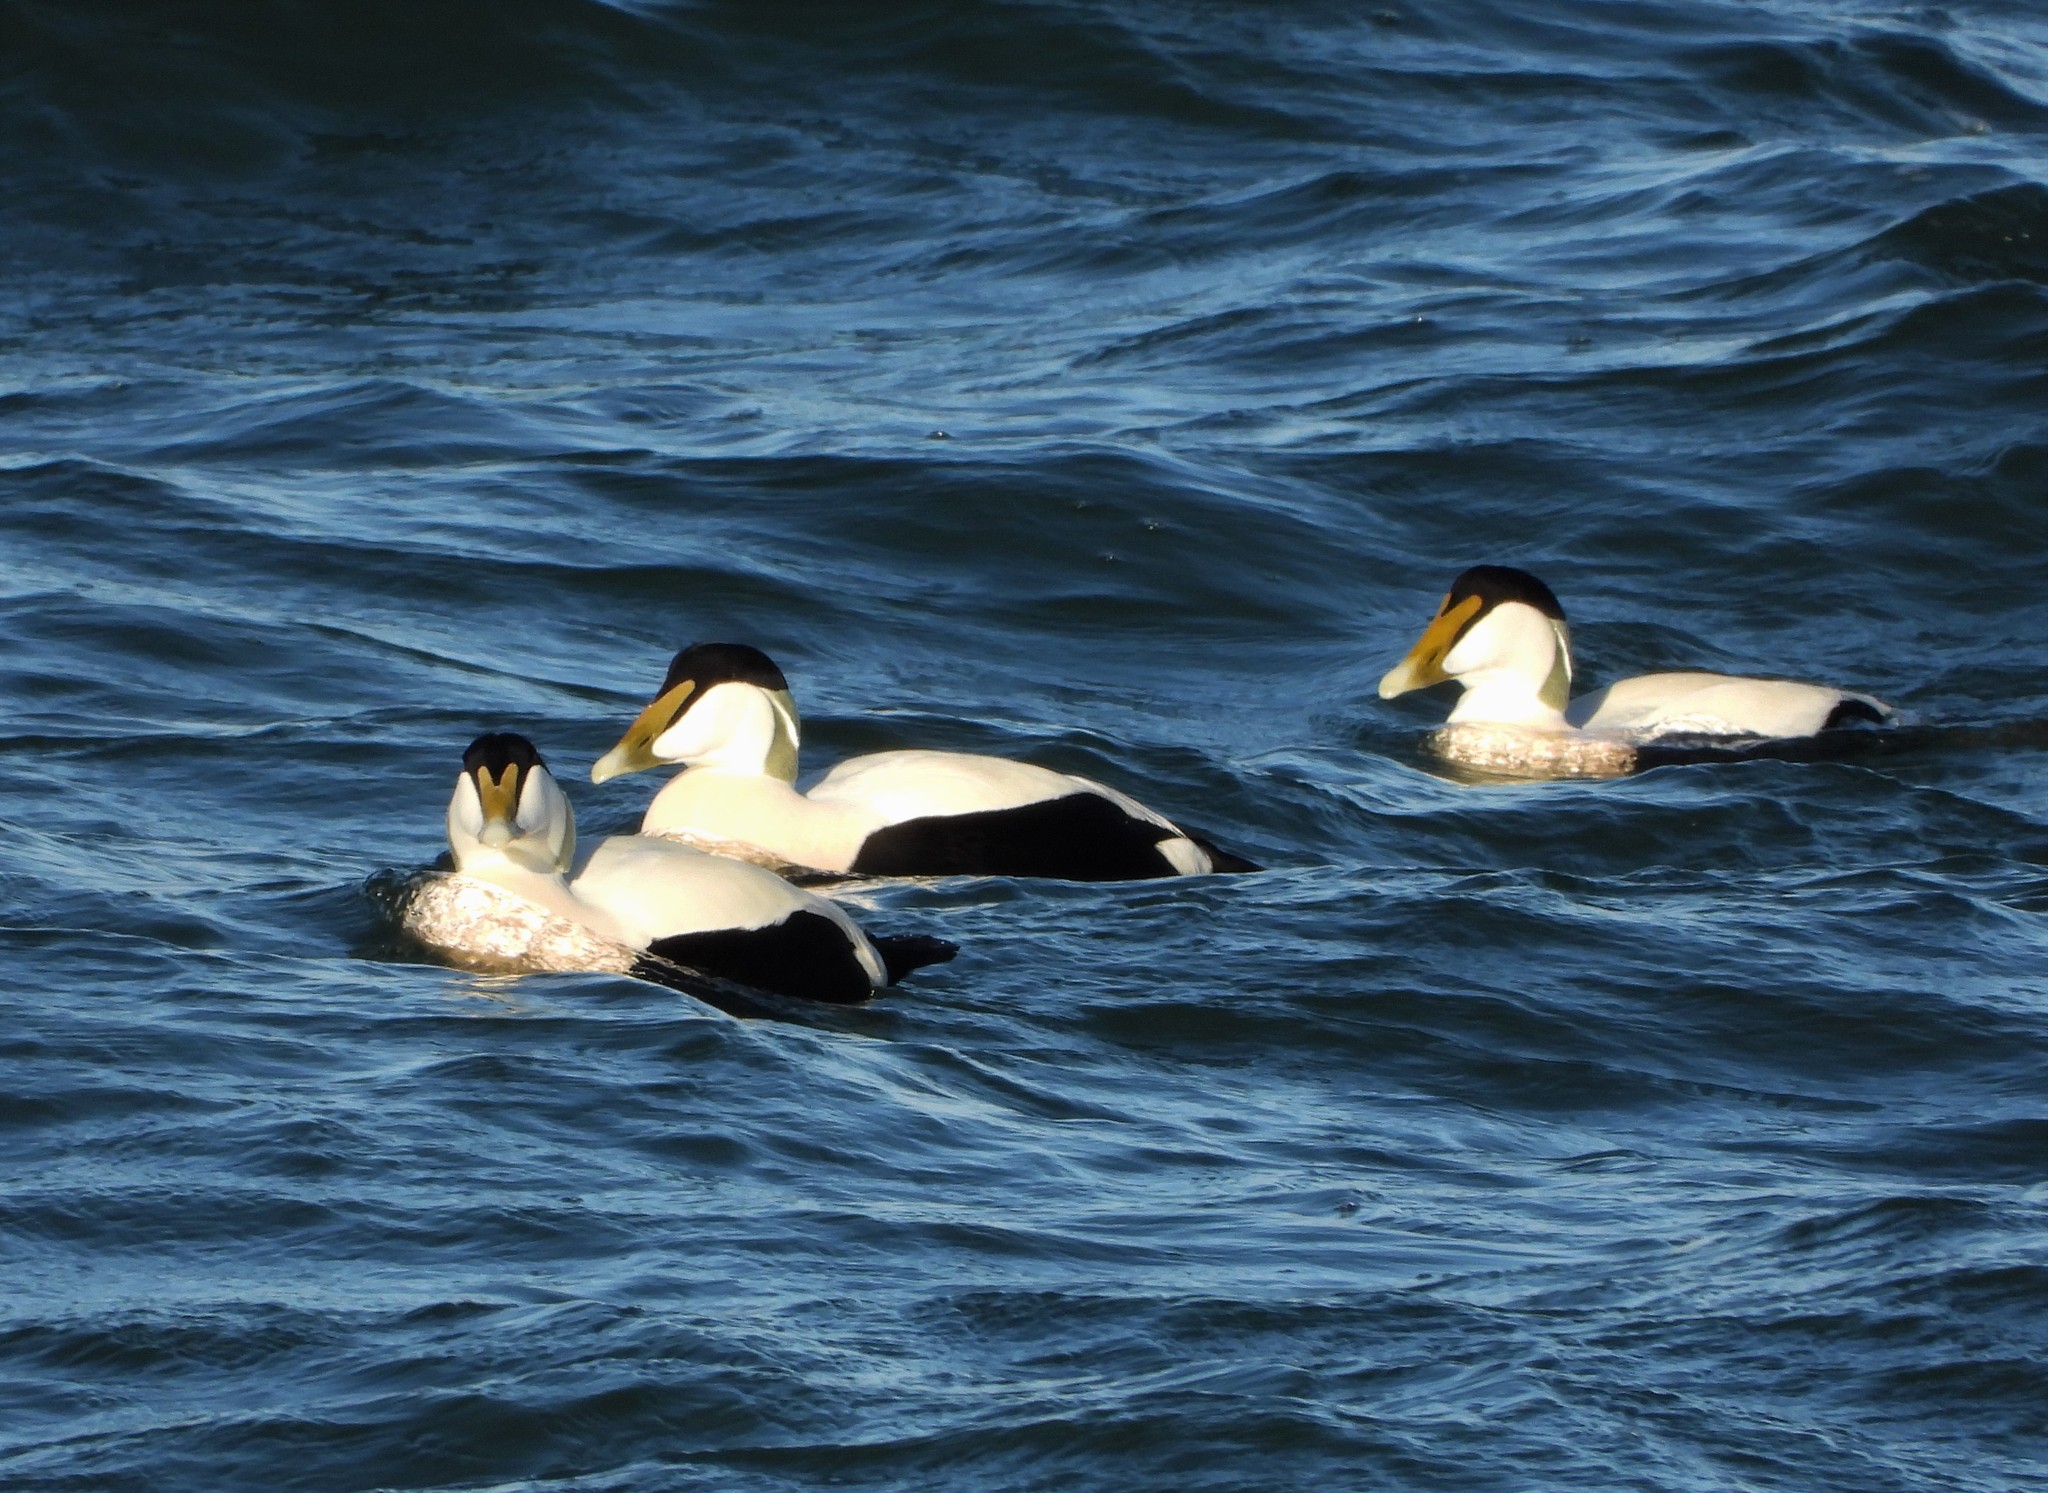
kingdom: Animalia
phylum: Chordata
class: Aves
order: Anseriformes
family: Anatidae
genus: Somateria
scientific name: Somateria mollissima
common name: Common eider
